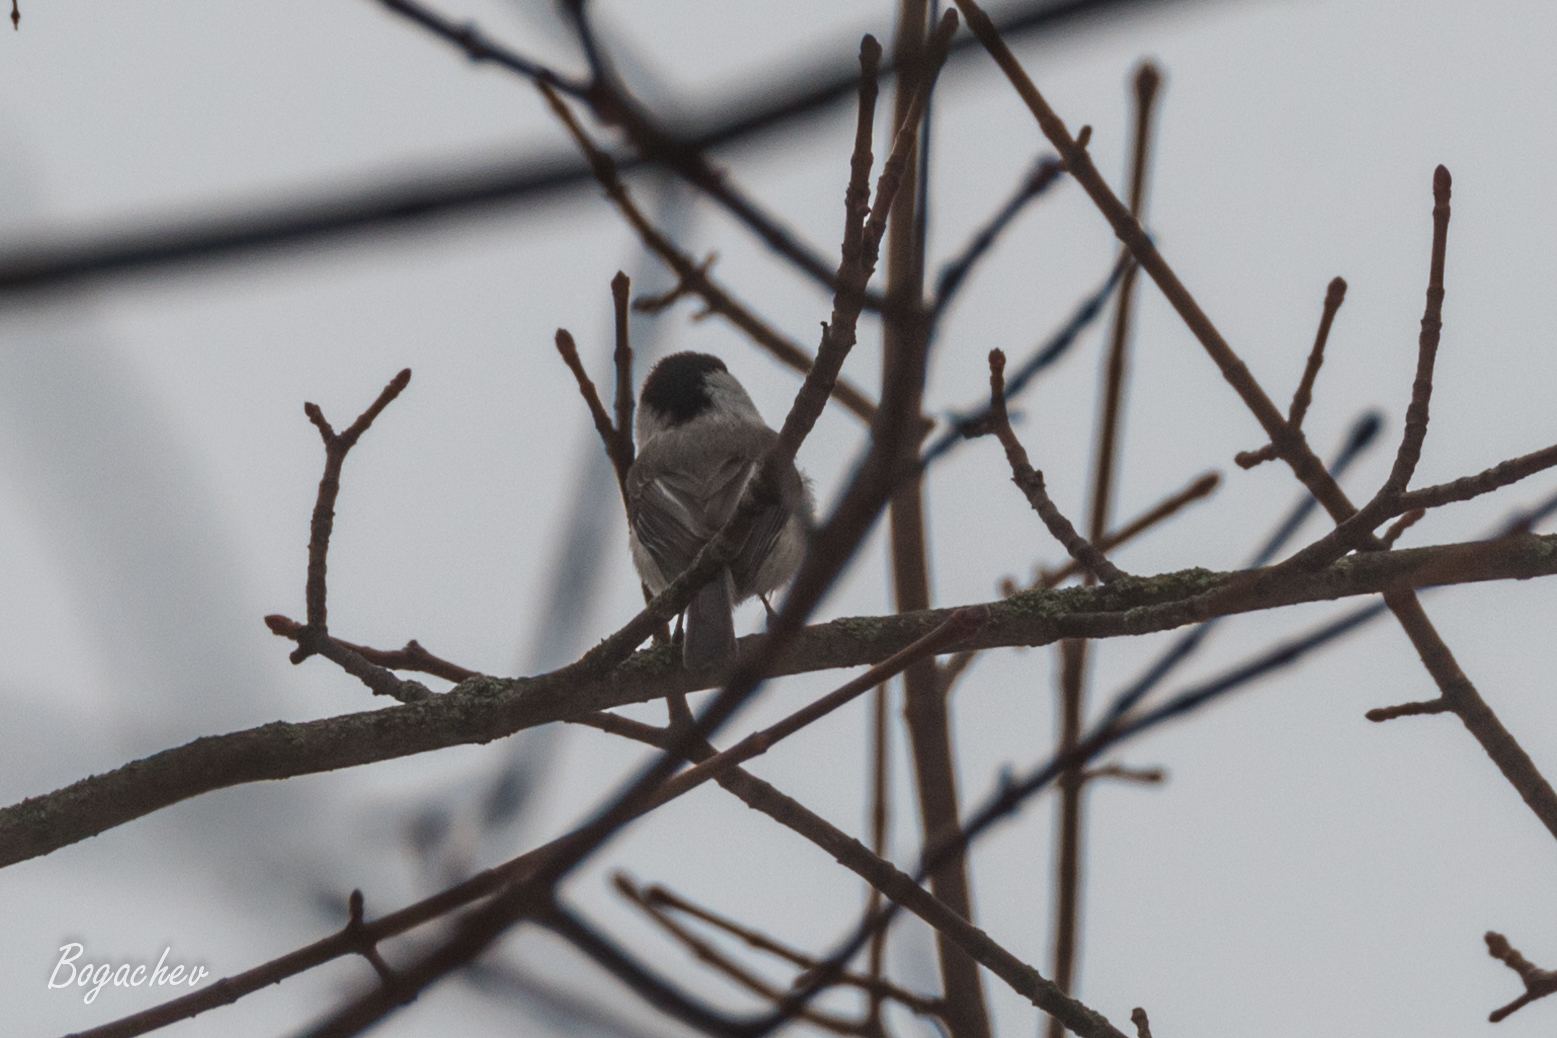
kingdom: Animalia
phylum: Chordata
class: Aves
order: Passeriformes
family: Paridae
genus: Poecile
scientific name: Poecile montanus
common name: Willow tit
